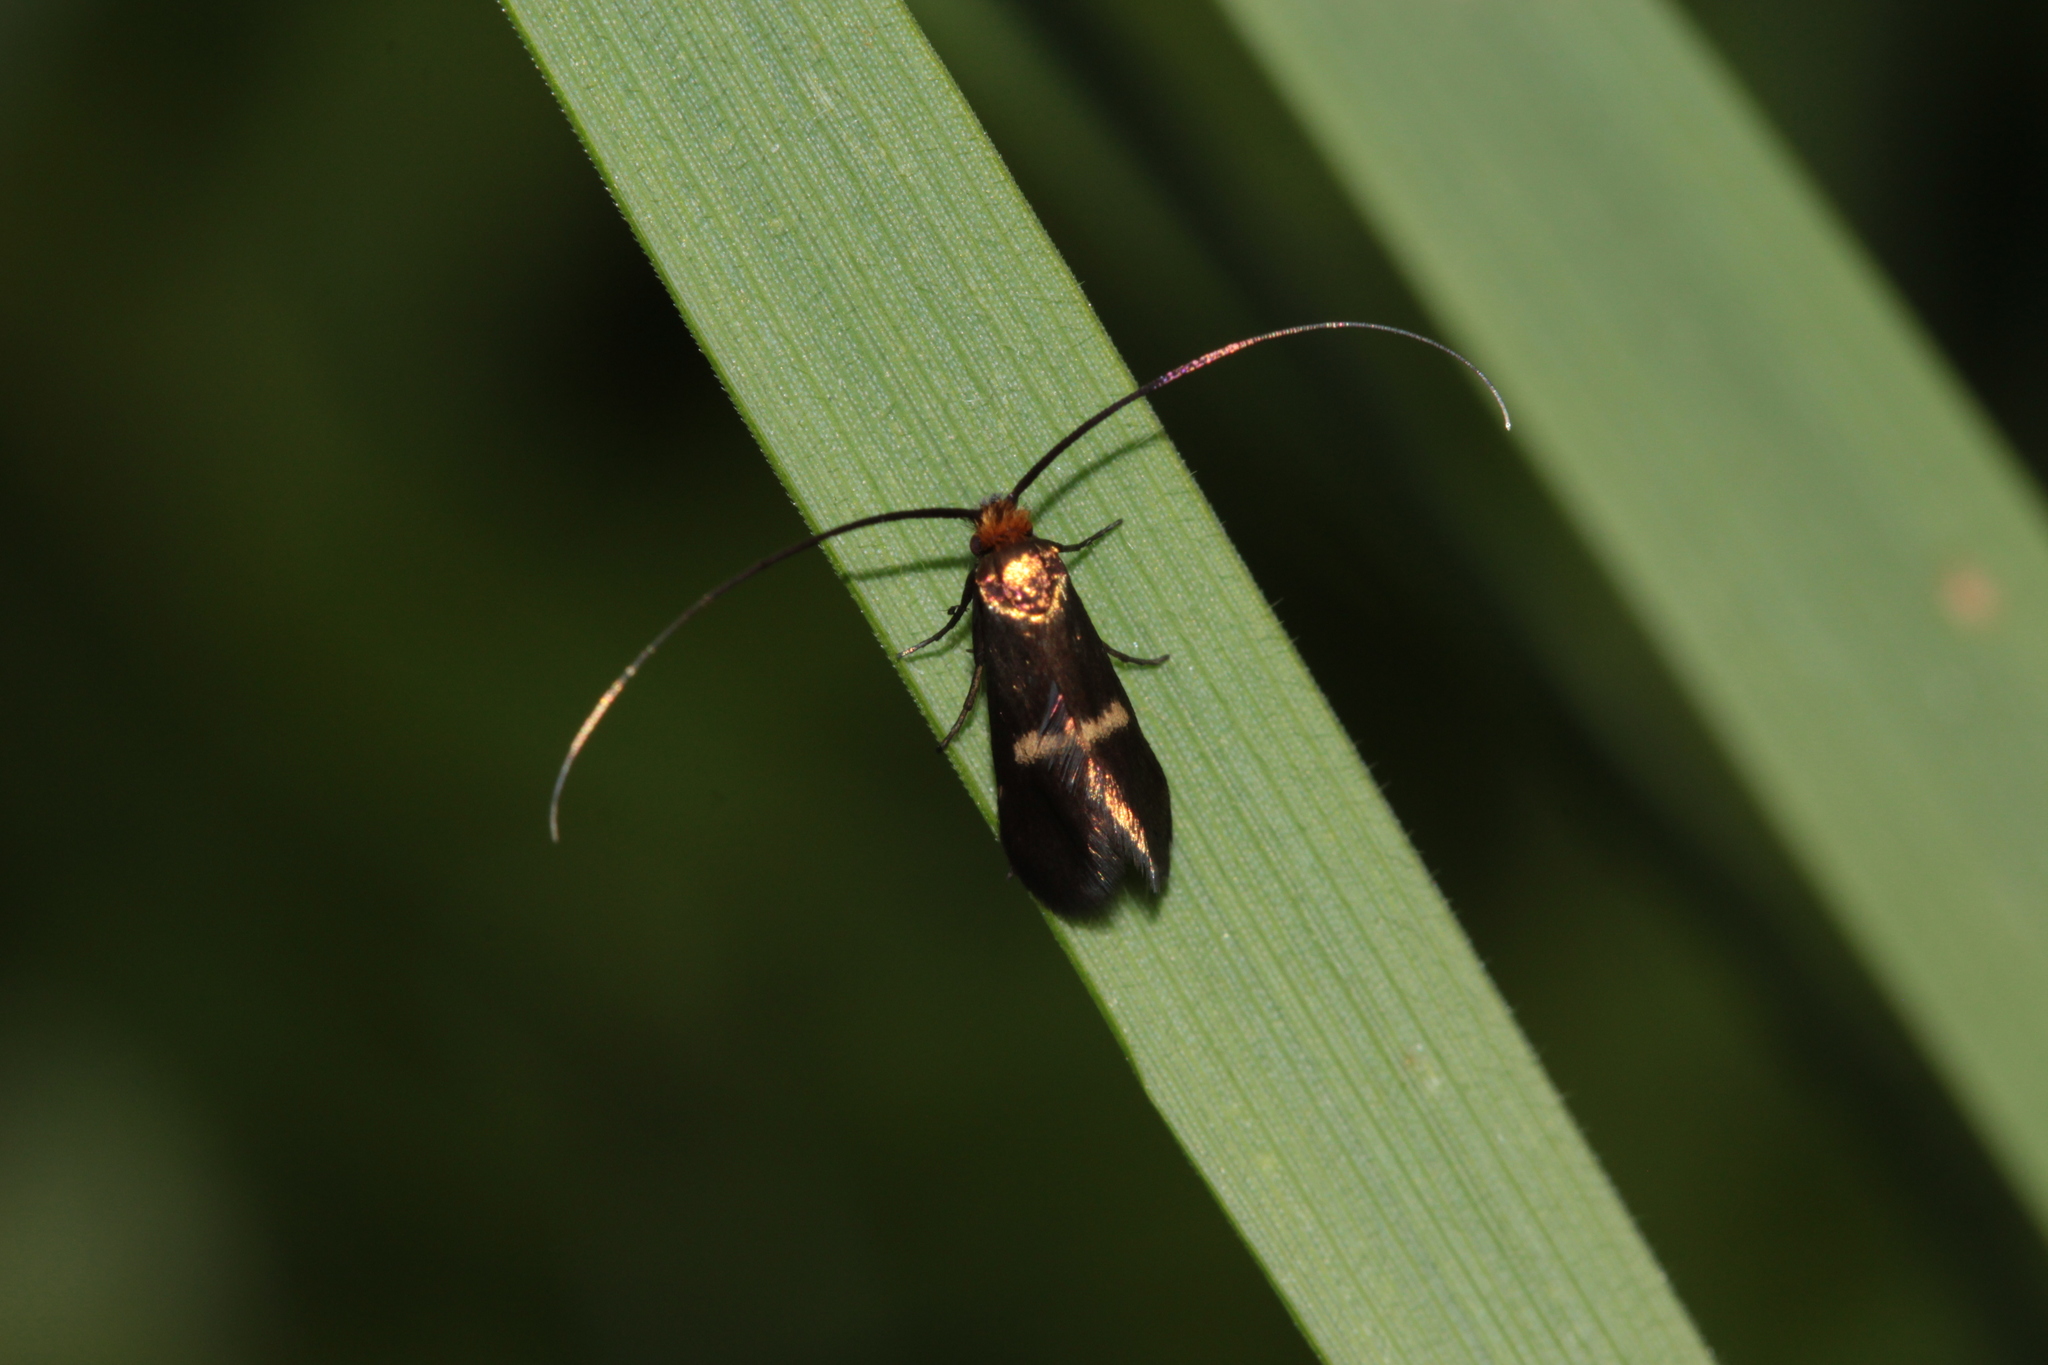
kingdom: Animalia
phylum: Arthropoda
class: Insecta
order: Lepidoptera
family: Adelidae
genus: Cauchas
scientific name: Cauchas rufimitrella
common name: Meadow long-horn
